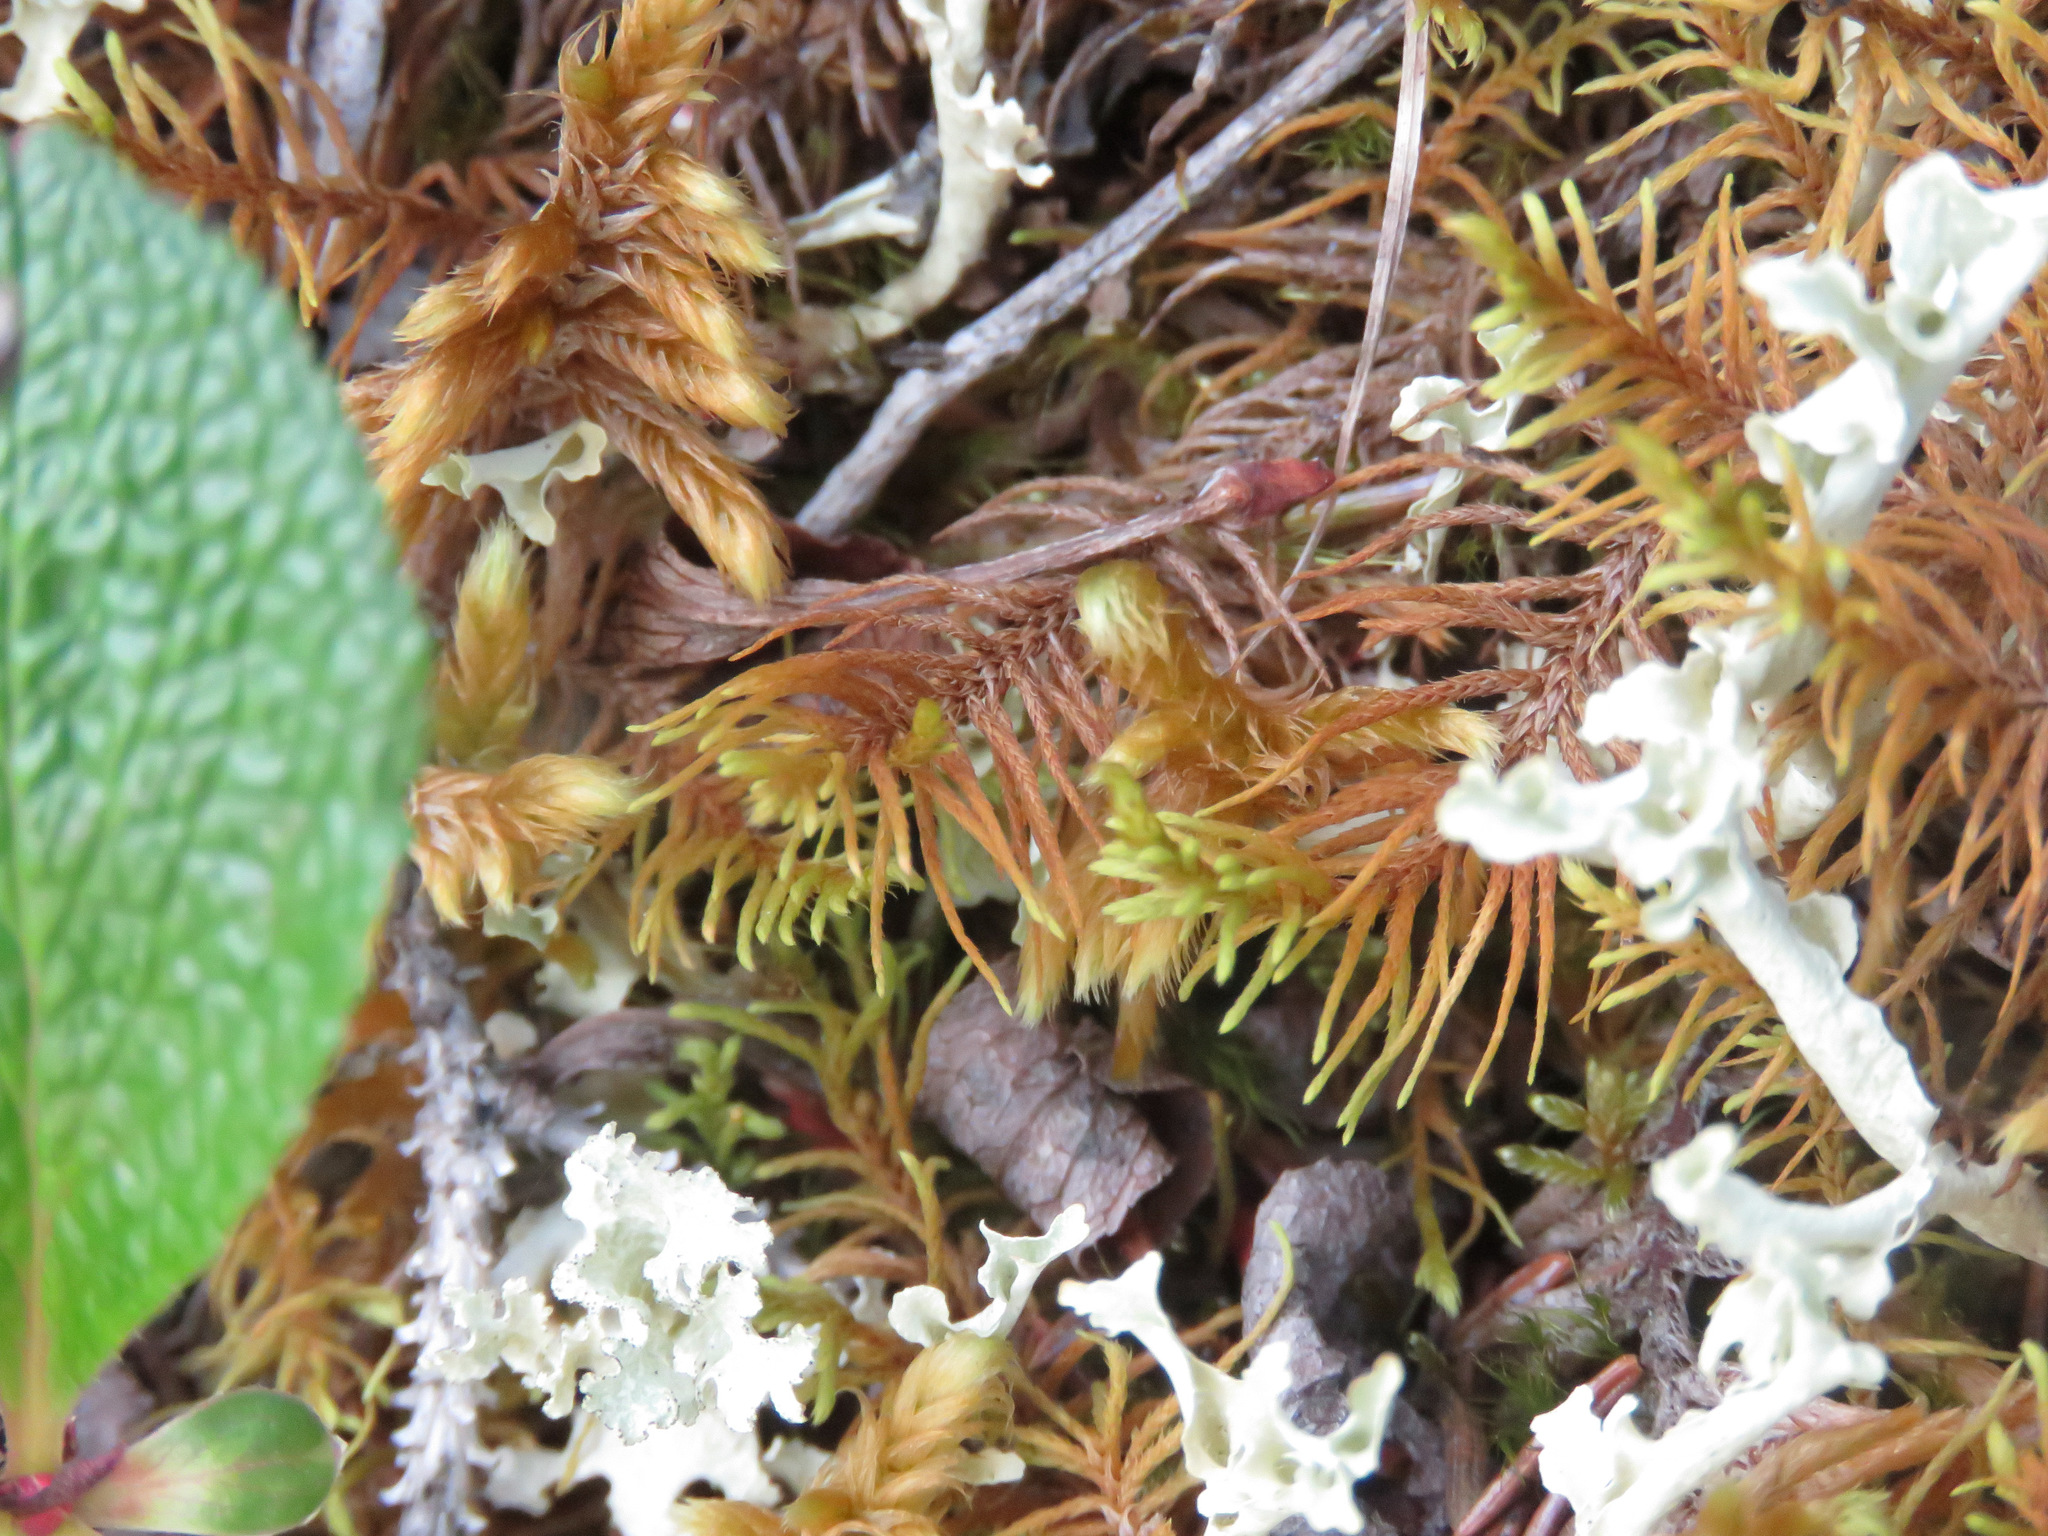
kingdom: Plantae
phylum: Bryophyta
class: Bryopsida
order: Hypnales
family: Thuidiaceae
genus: Abietinella
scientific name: Abietinella abietina
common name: Wiry fern moss
